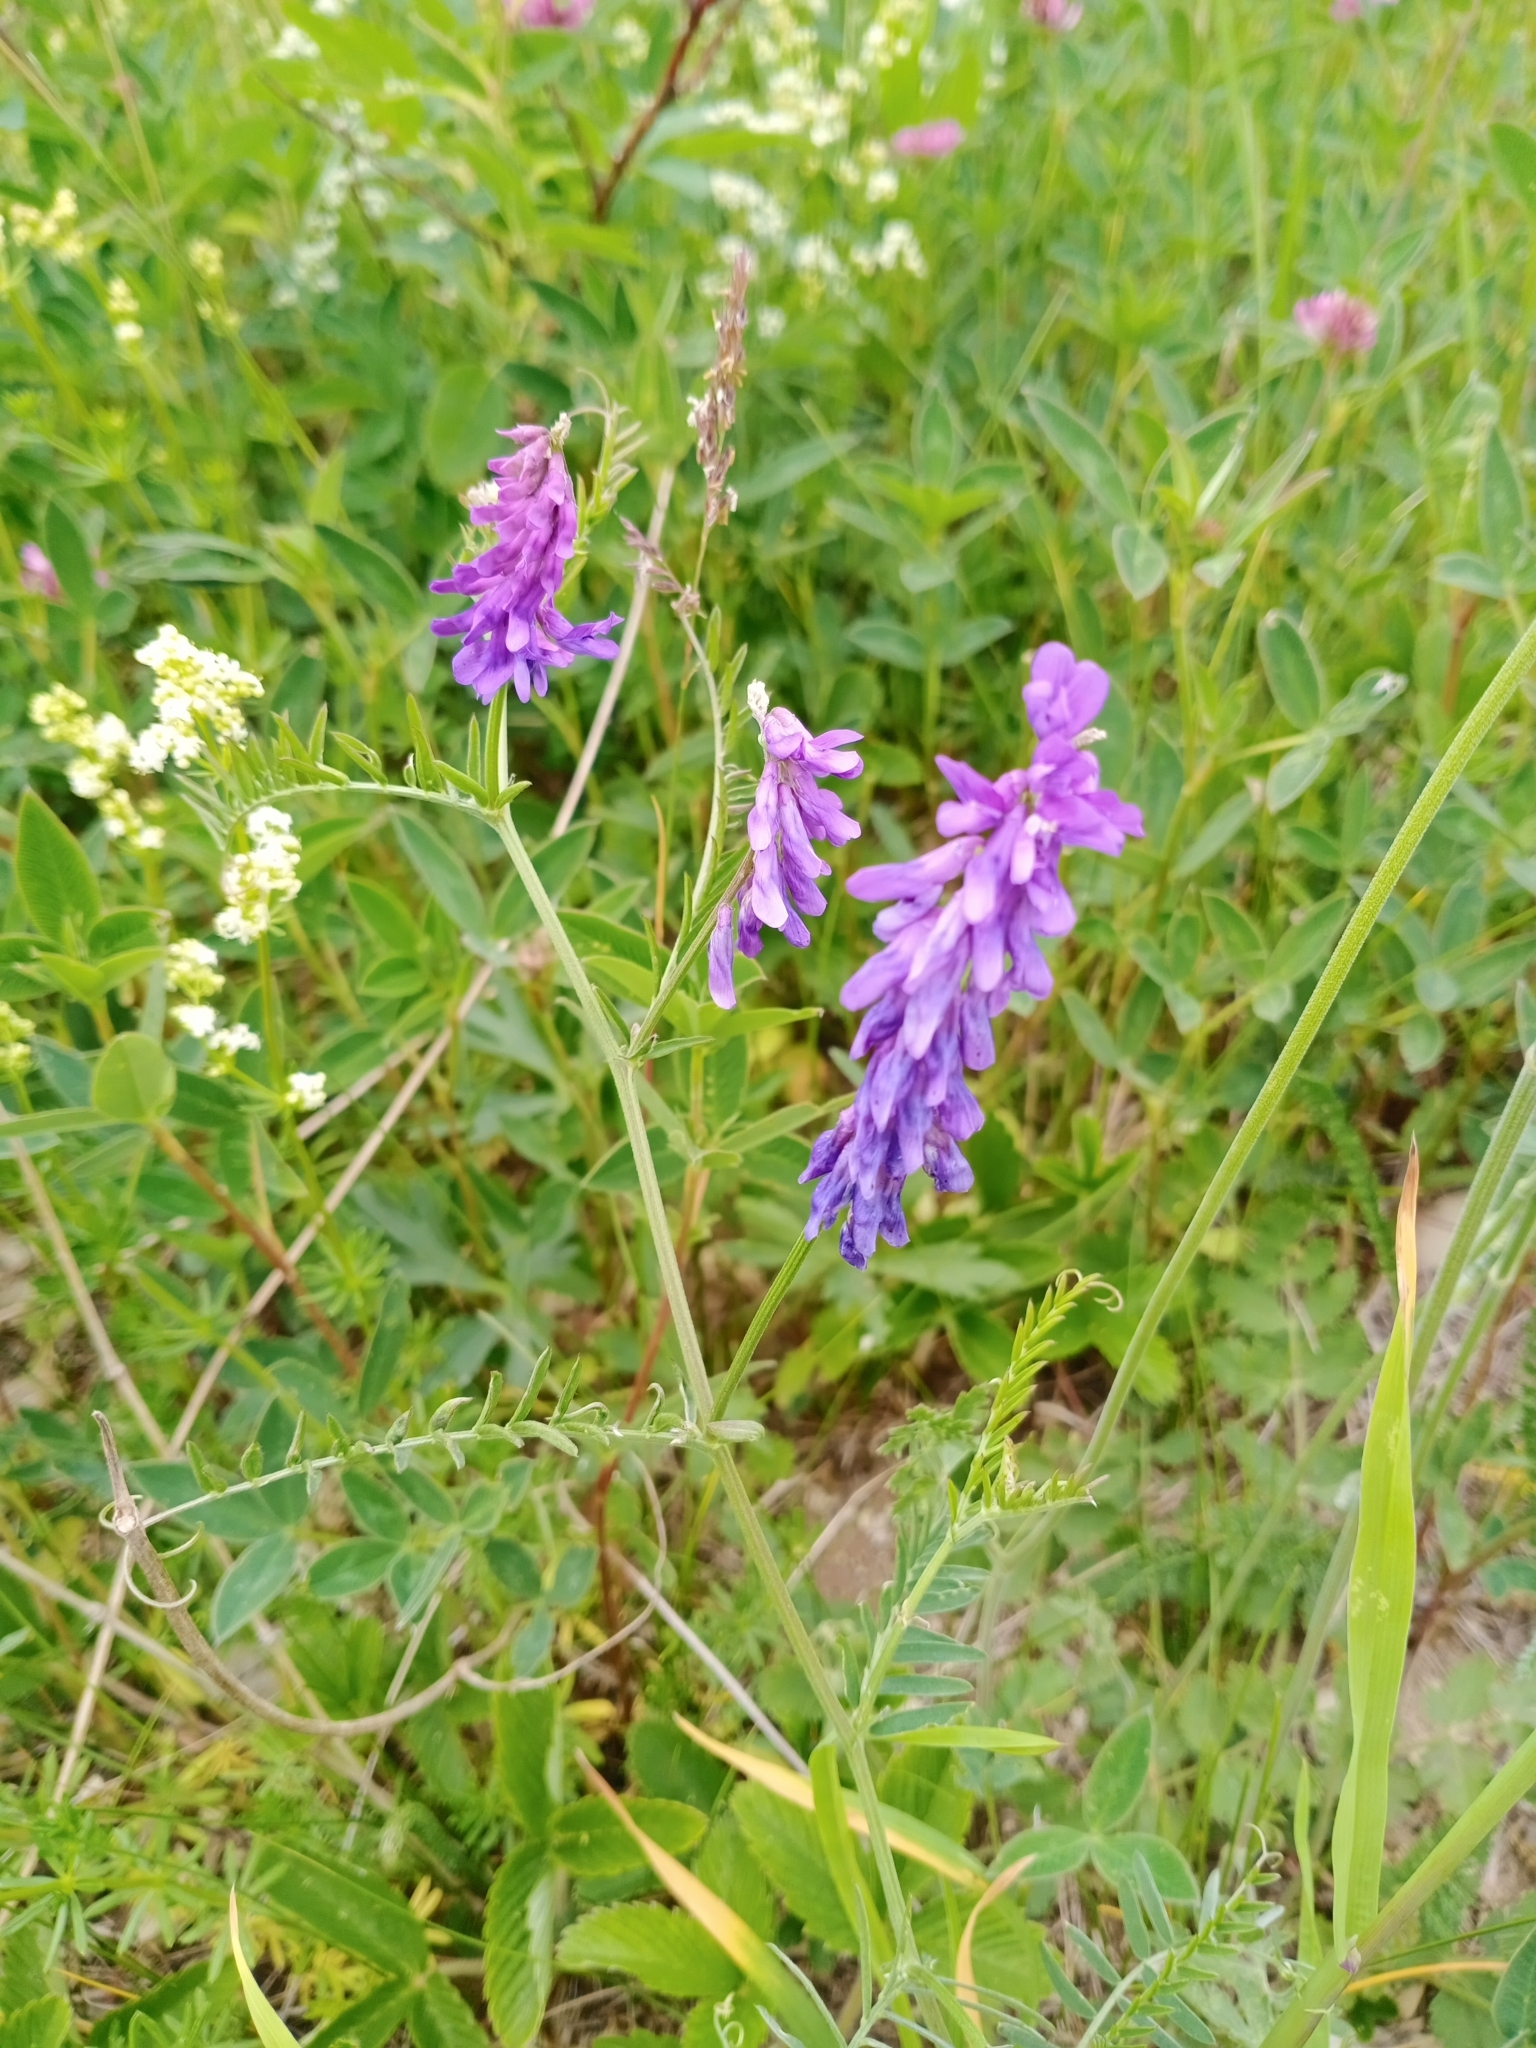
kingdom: Plantae
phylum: Tracheophyta
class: Magnoliopsida
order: Fabales
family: Fabaceae
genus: Vicia
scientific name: Vicia cracca
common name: Bird vetch
